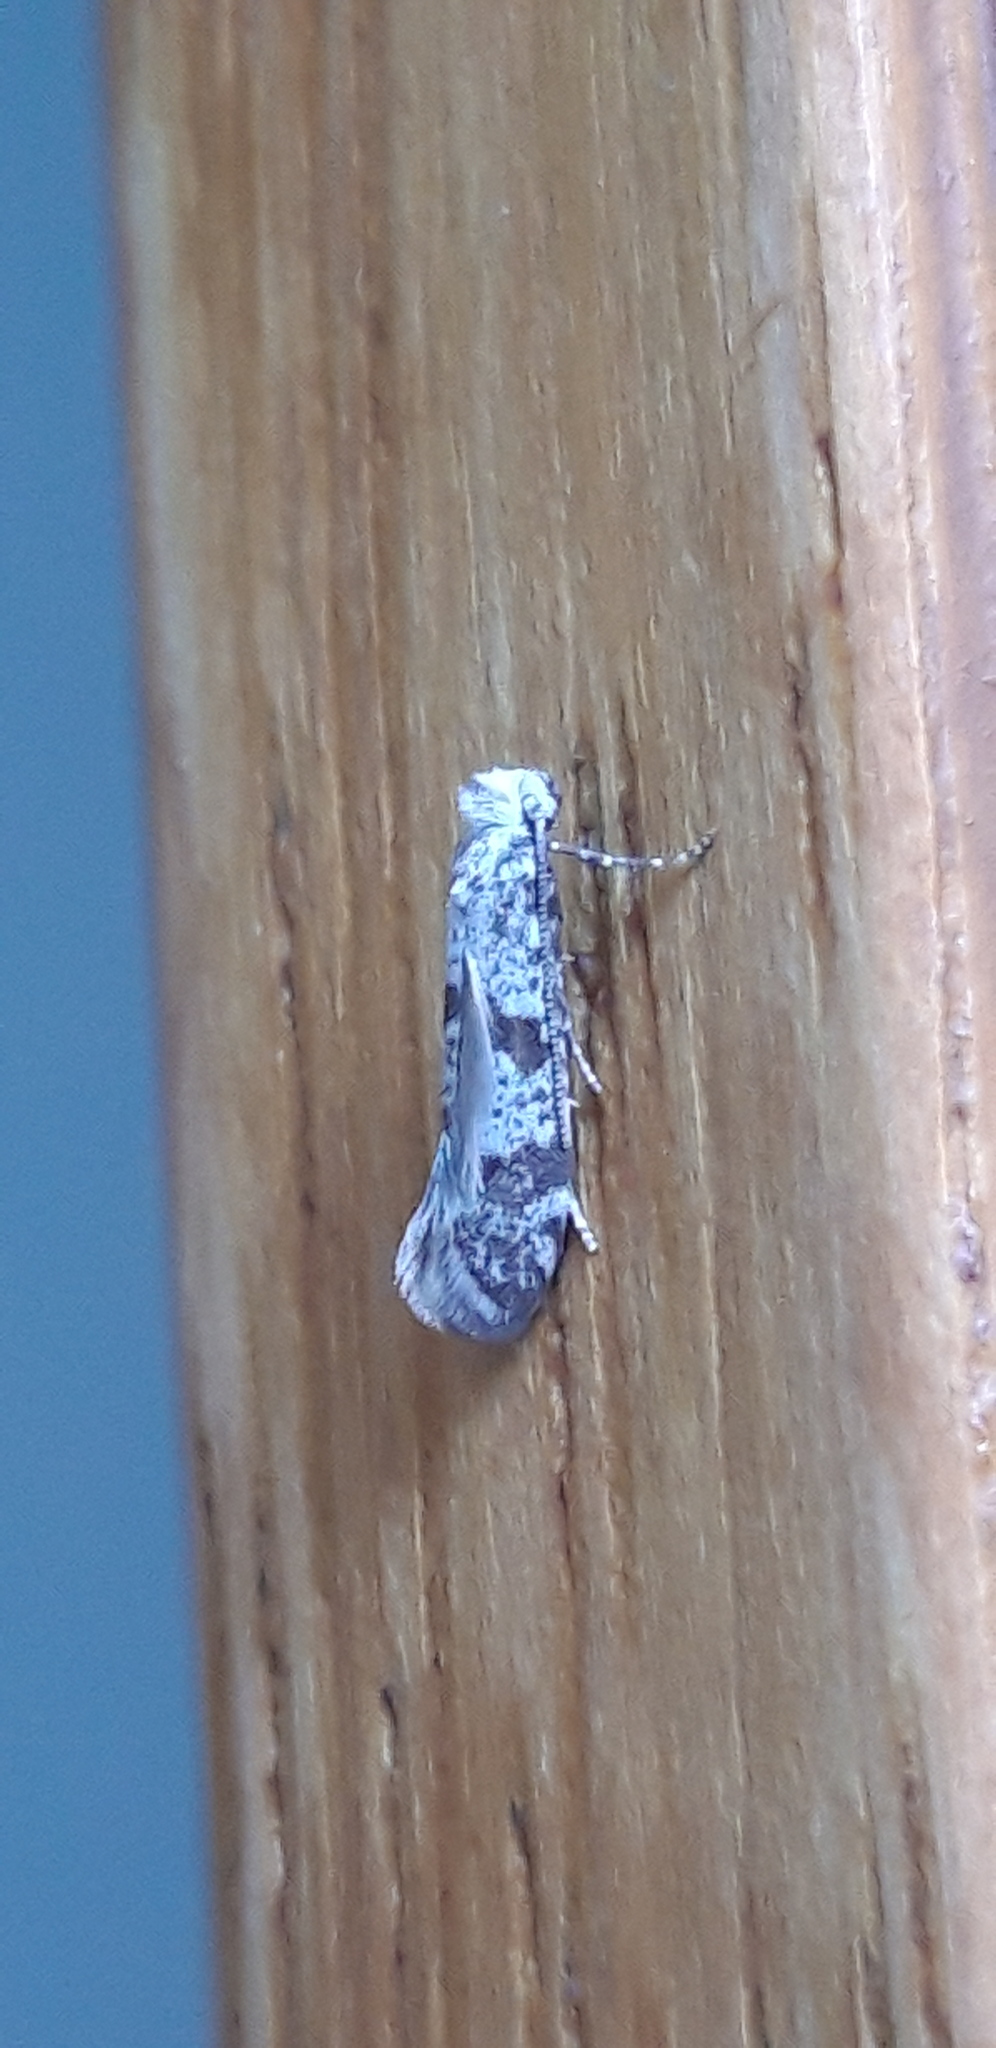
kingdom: Animalia
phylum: Arthropoda
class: Insecta
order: Lepidoptera
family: Yponomeutidae
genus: Scythropia
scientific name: Scythropia crataegella
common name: Hawthorn moth
